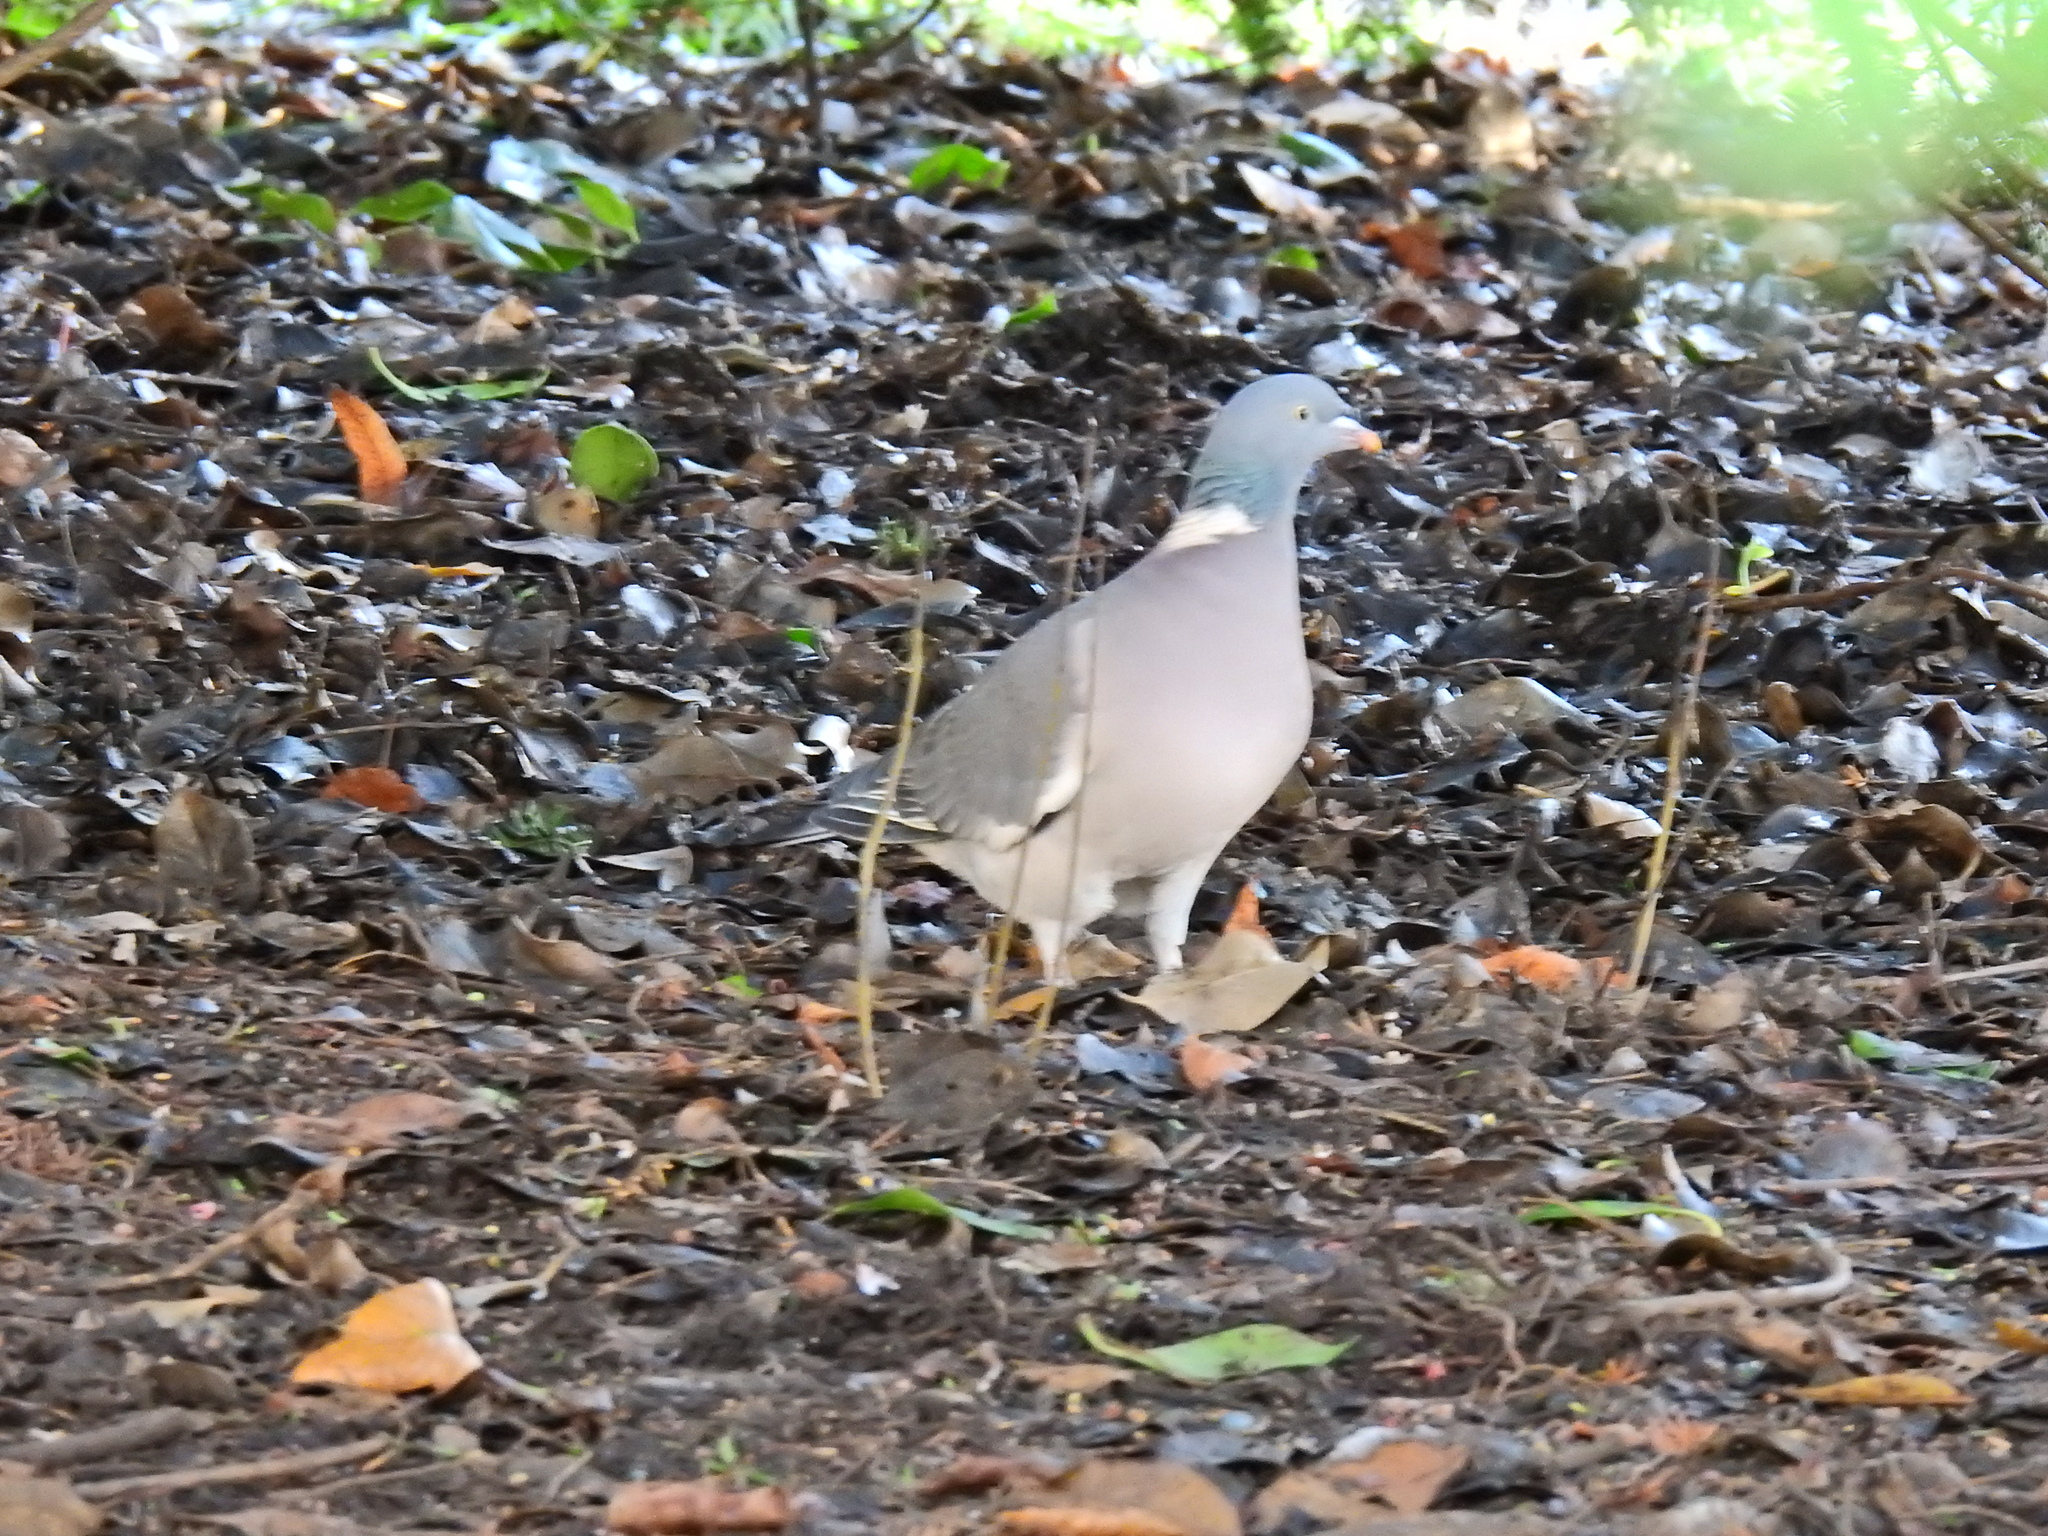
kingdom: Animalia
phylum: Chordata
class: Aves
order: Columbiformes
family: Columbidae
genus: Columba
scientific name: Columba palumbus
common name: Common wood pigeon
